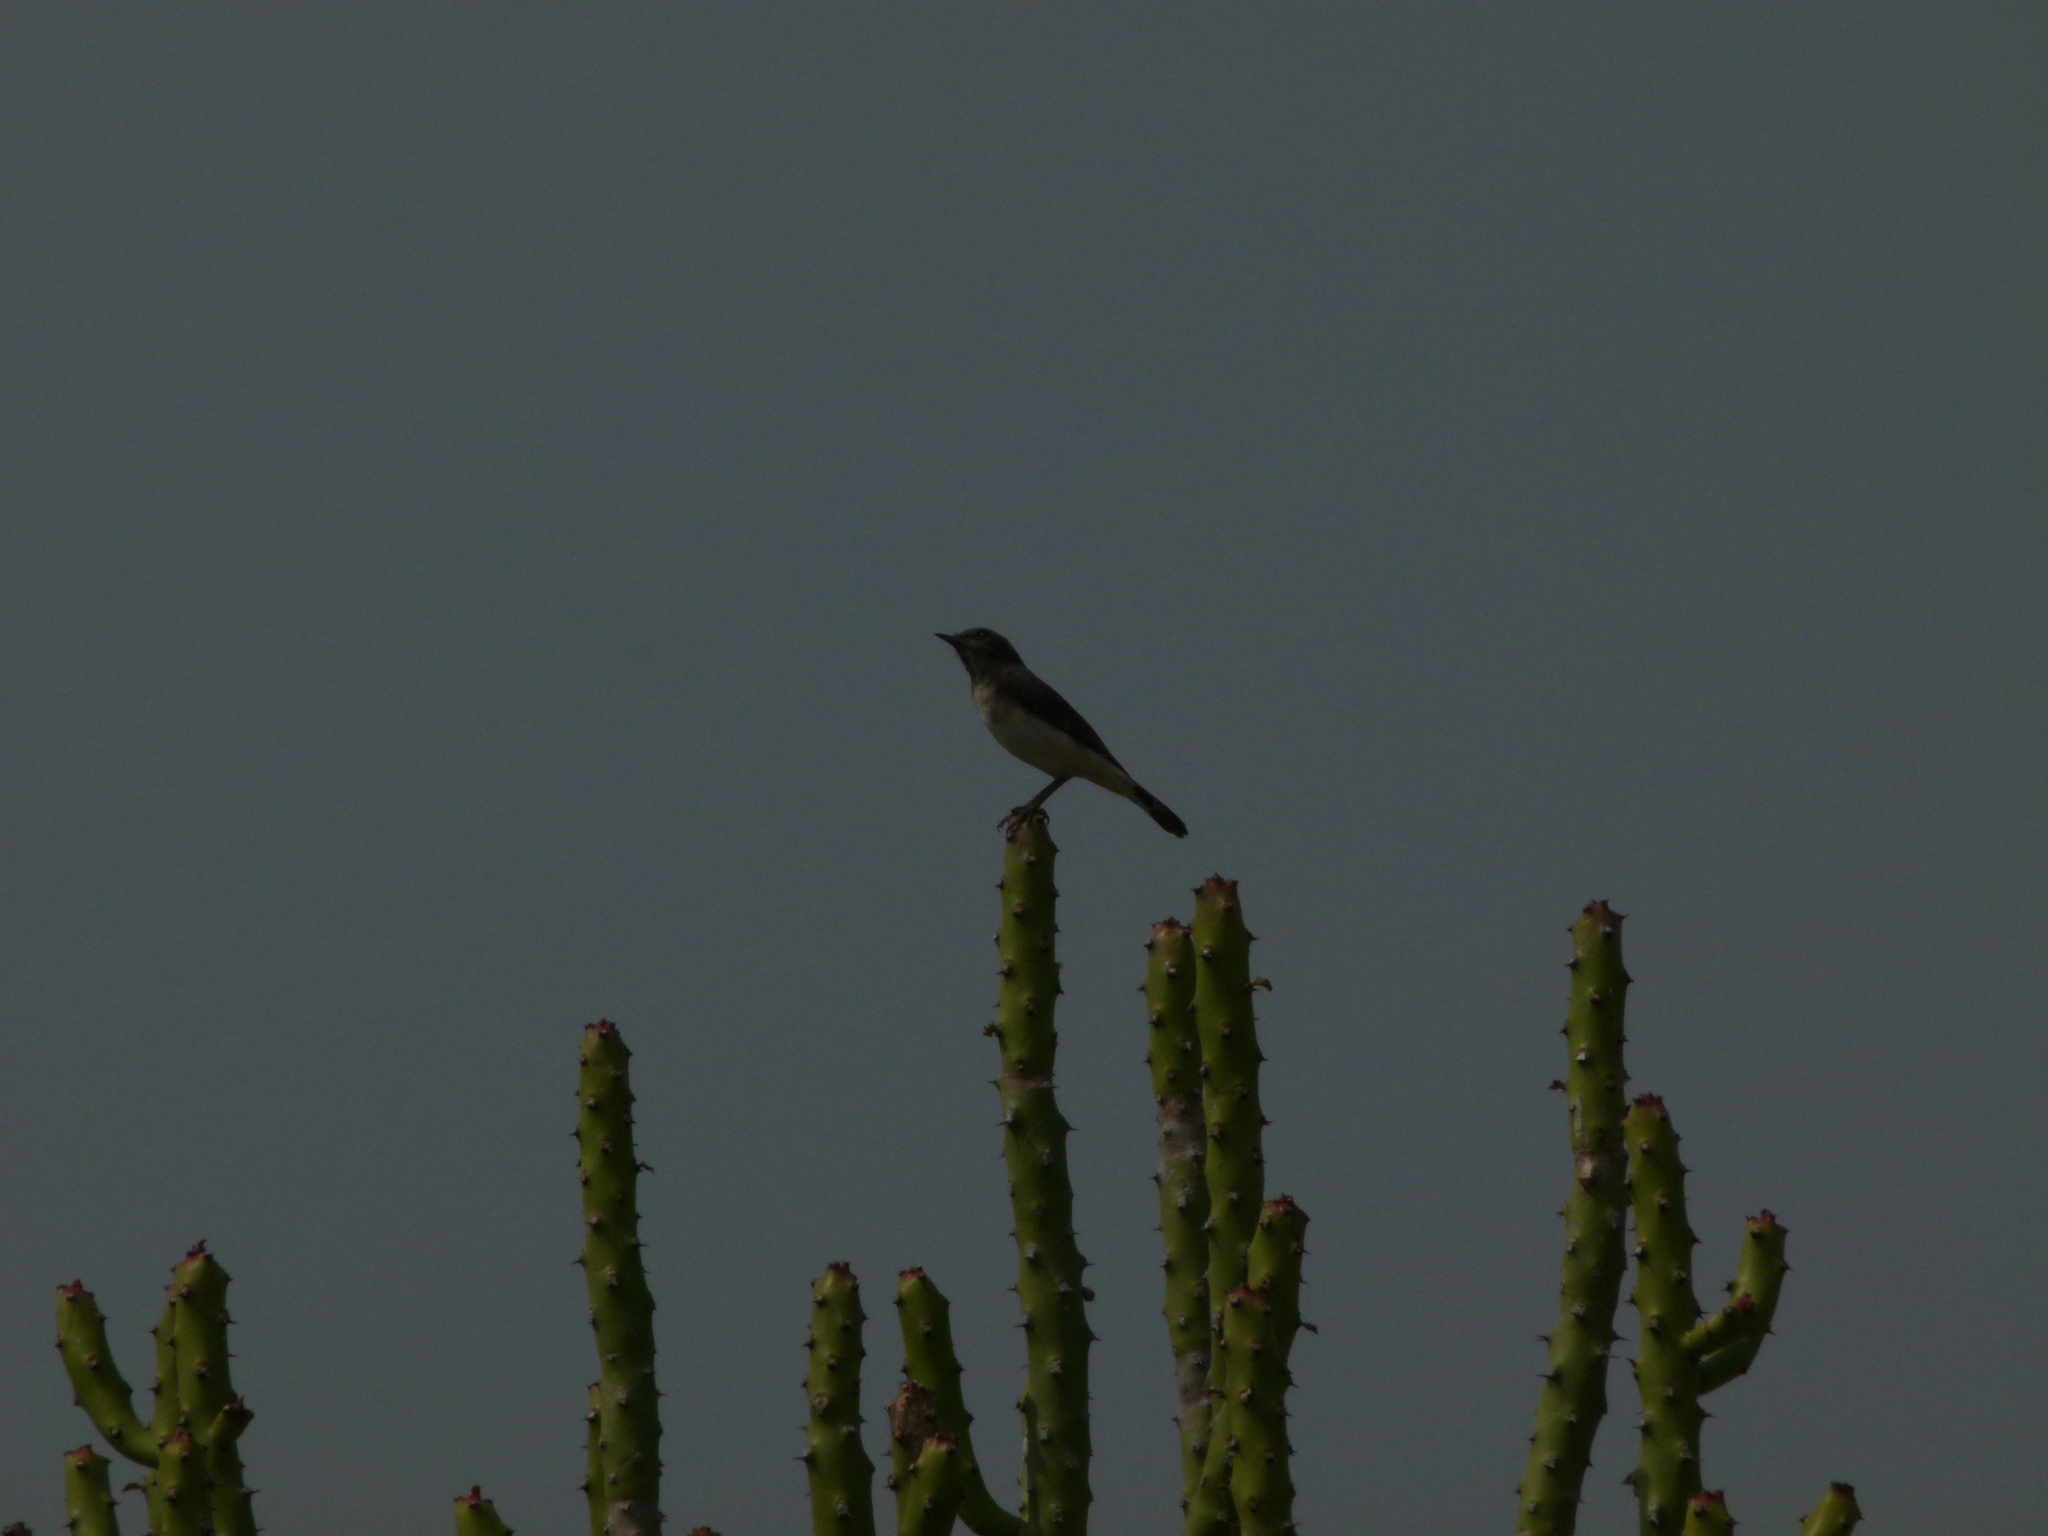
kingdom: Animalia
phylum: Chordata
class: Aves
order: Passeriformes
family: Muscicapidae
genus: Oenanthe
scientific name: Oenanthe picata
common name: Variable wheatear
